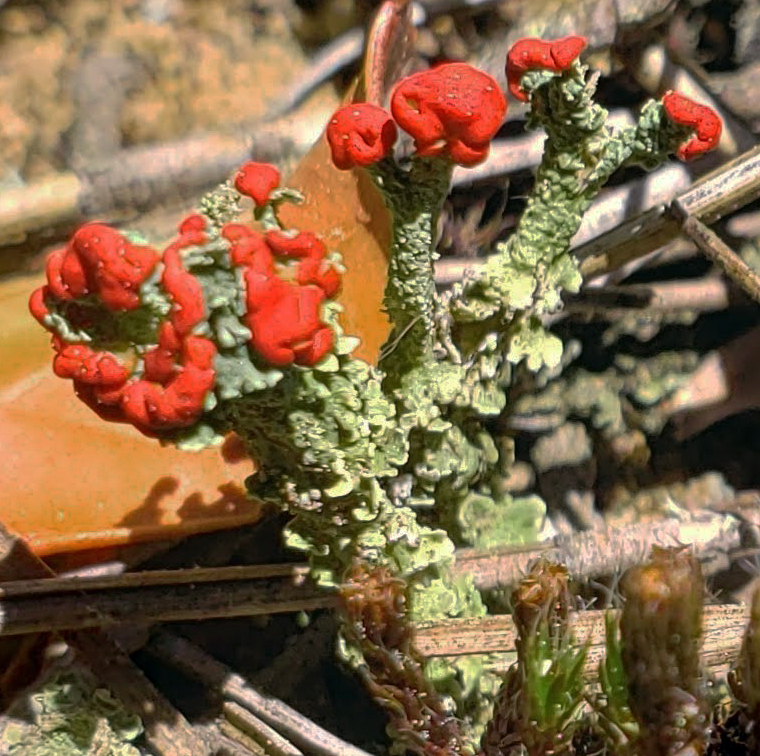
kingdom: Fungi
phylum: Ascomycota
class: Lecanoromycetes
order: Lecanorales
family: Cladoniaceae
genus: Cladonia
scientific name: Cladonia cristatella
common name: British soldier lichen
